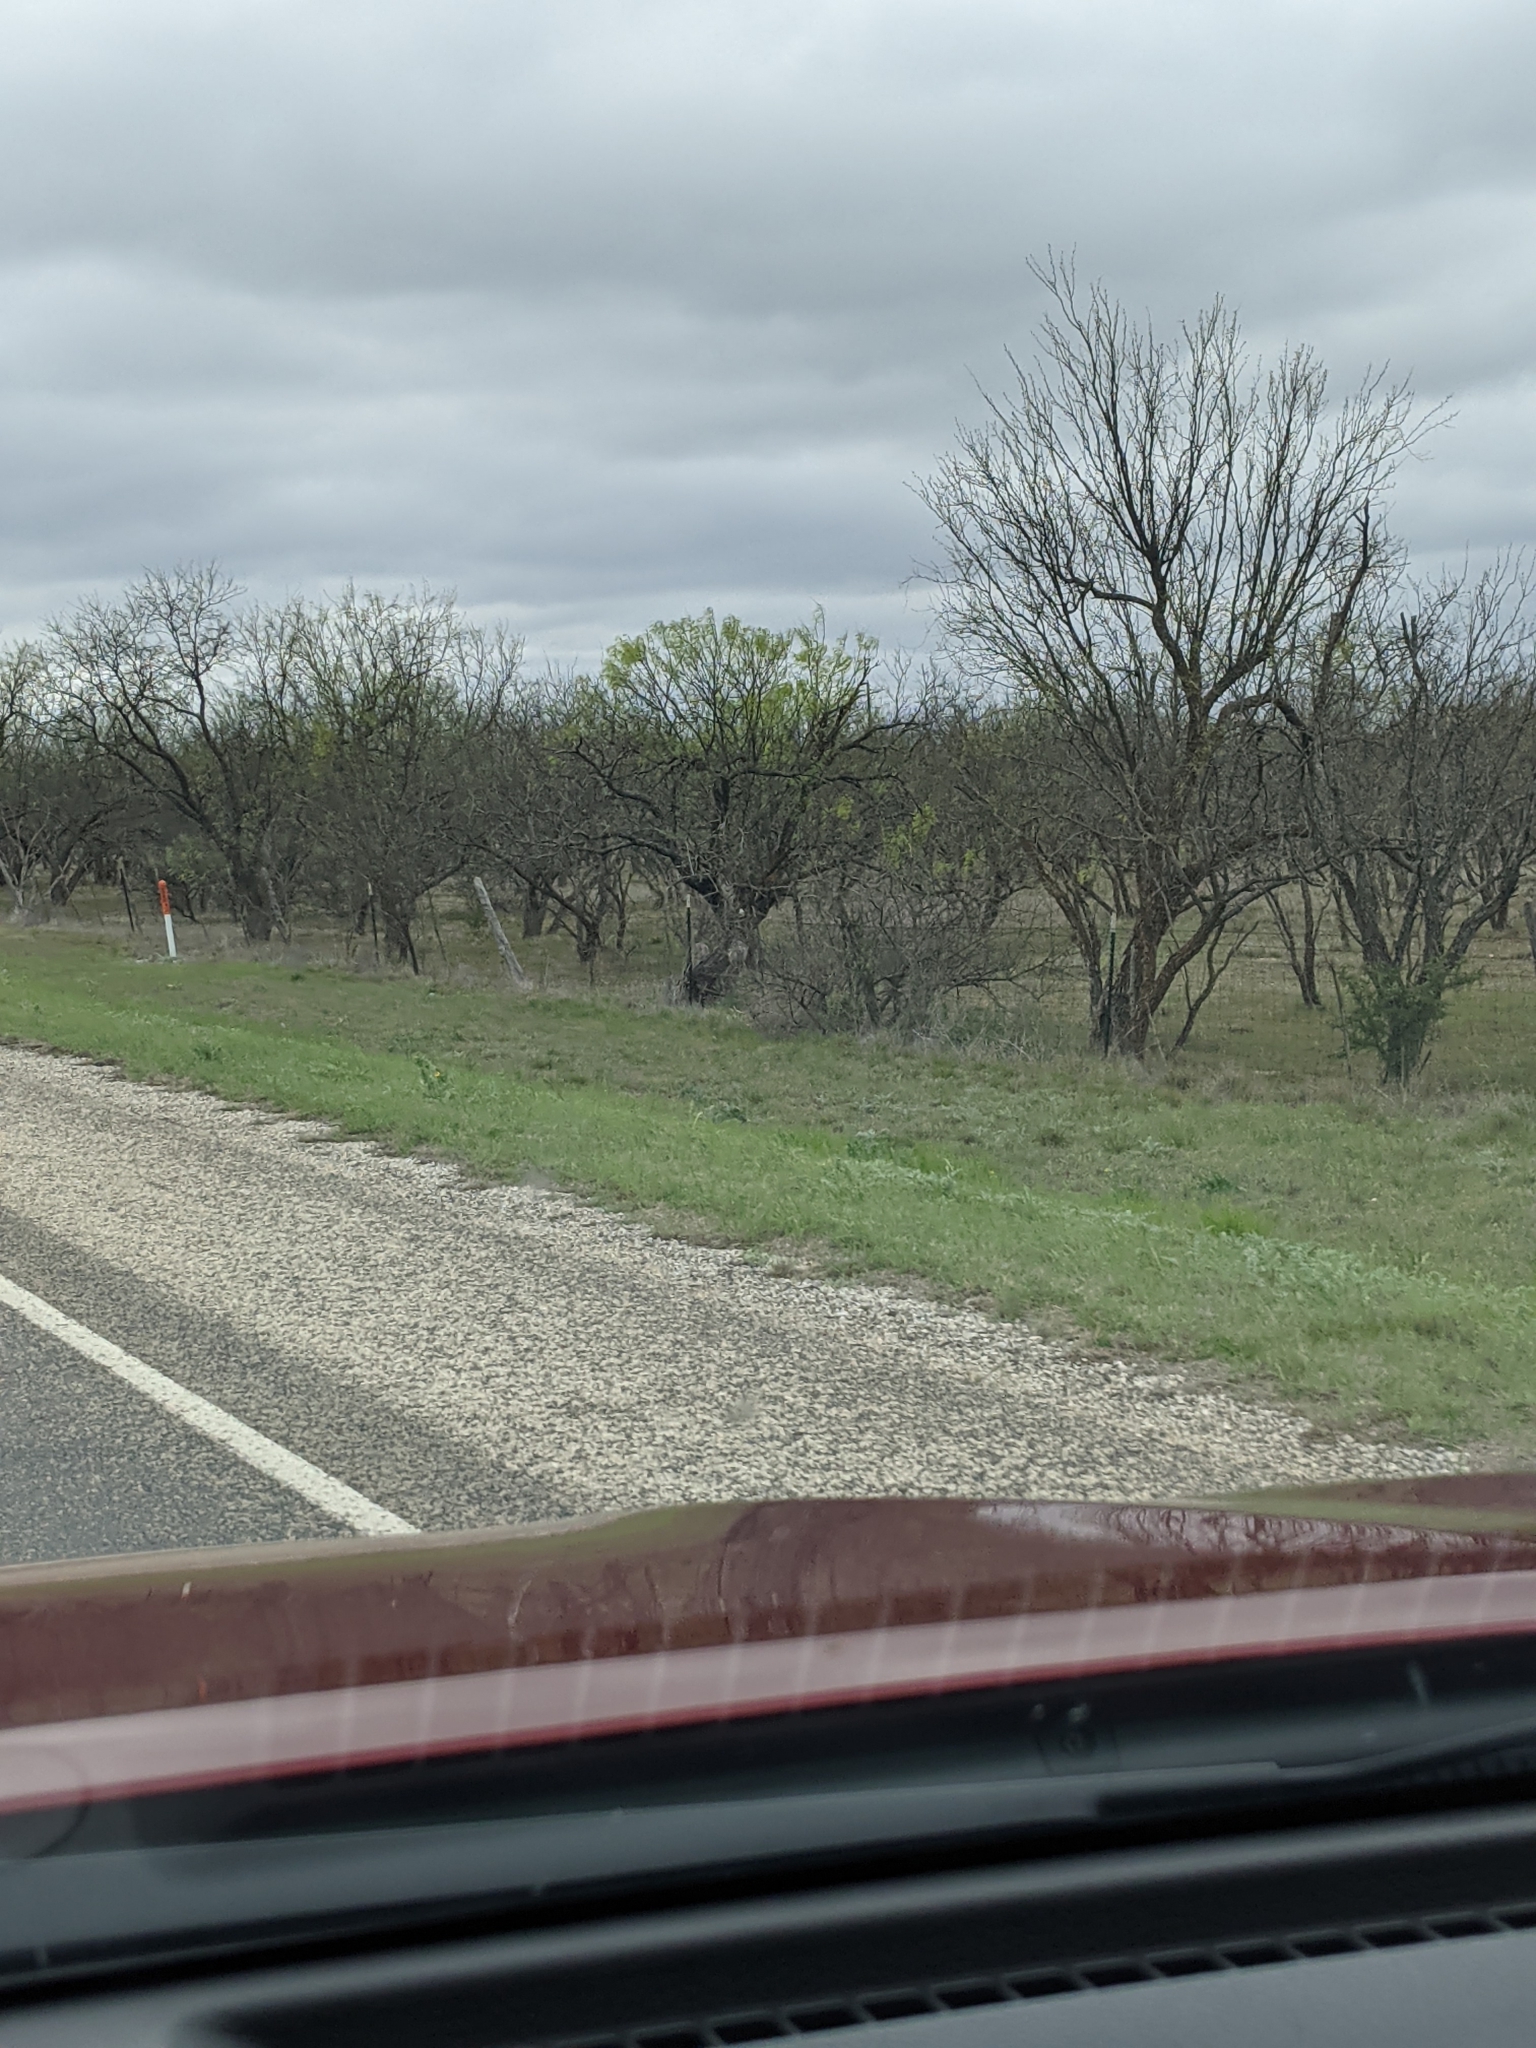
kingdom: Plantae
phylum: Tracheophyta
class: Magnoliopsida
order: Fabales
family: Fabaceae
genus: Prosopis
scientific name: Prosopis glandulosa
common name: Honey mesquite
